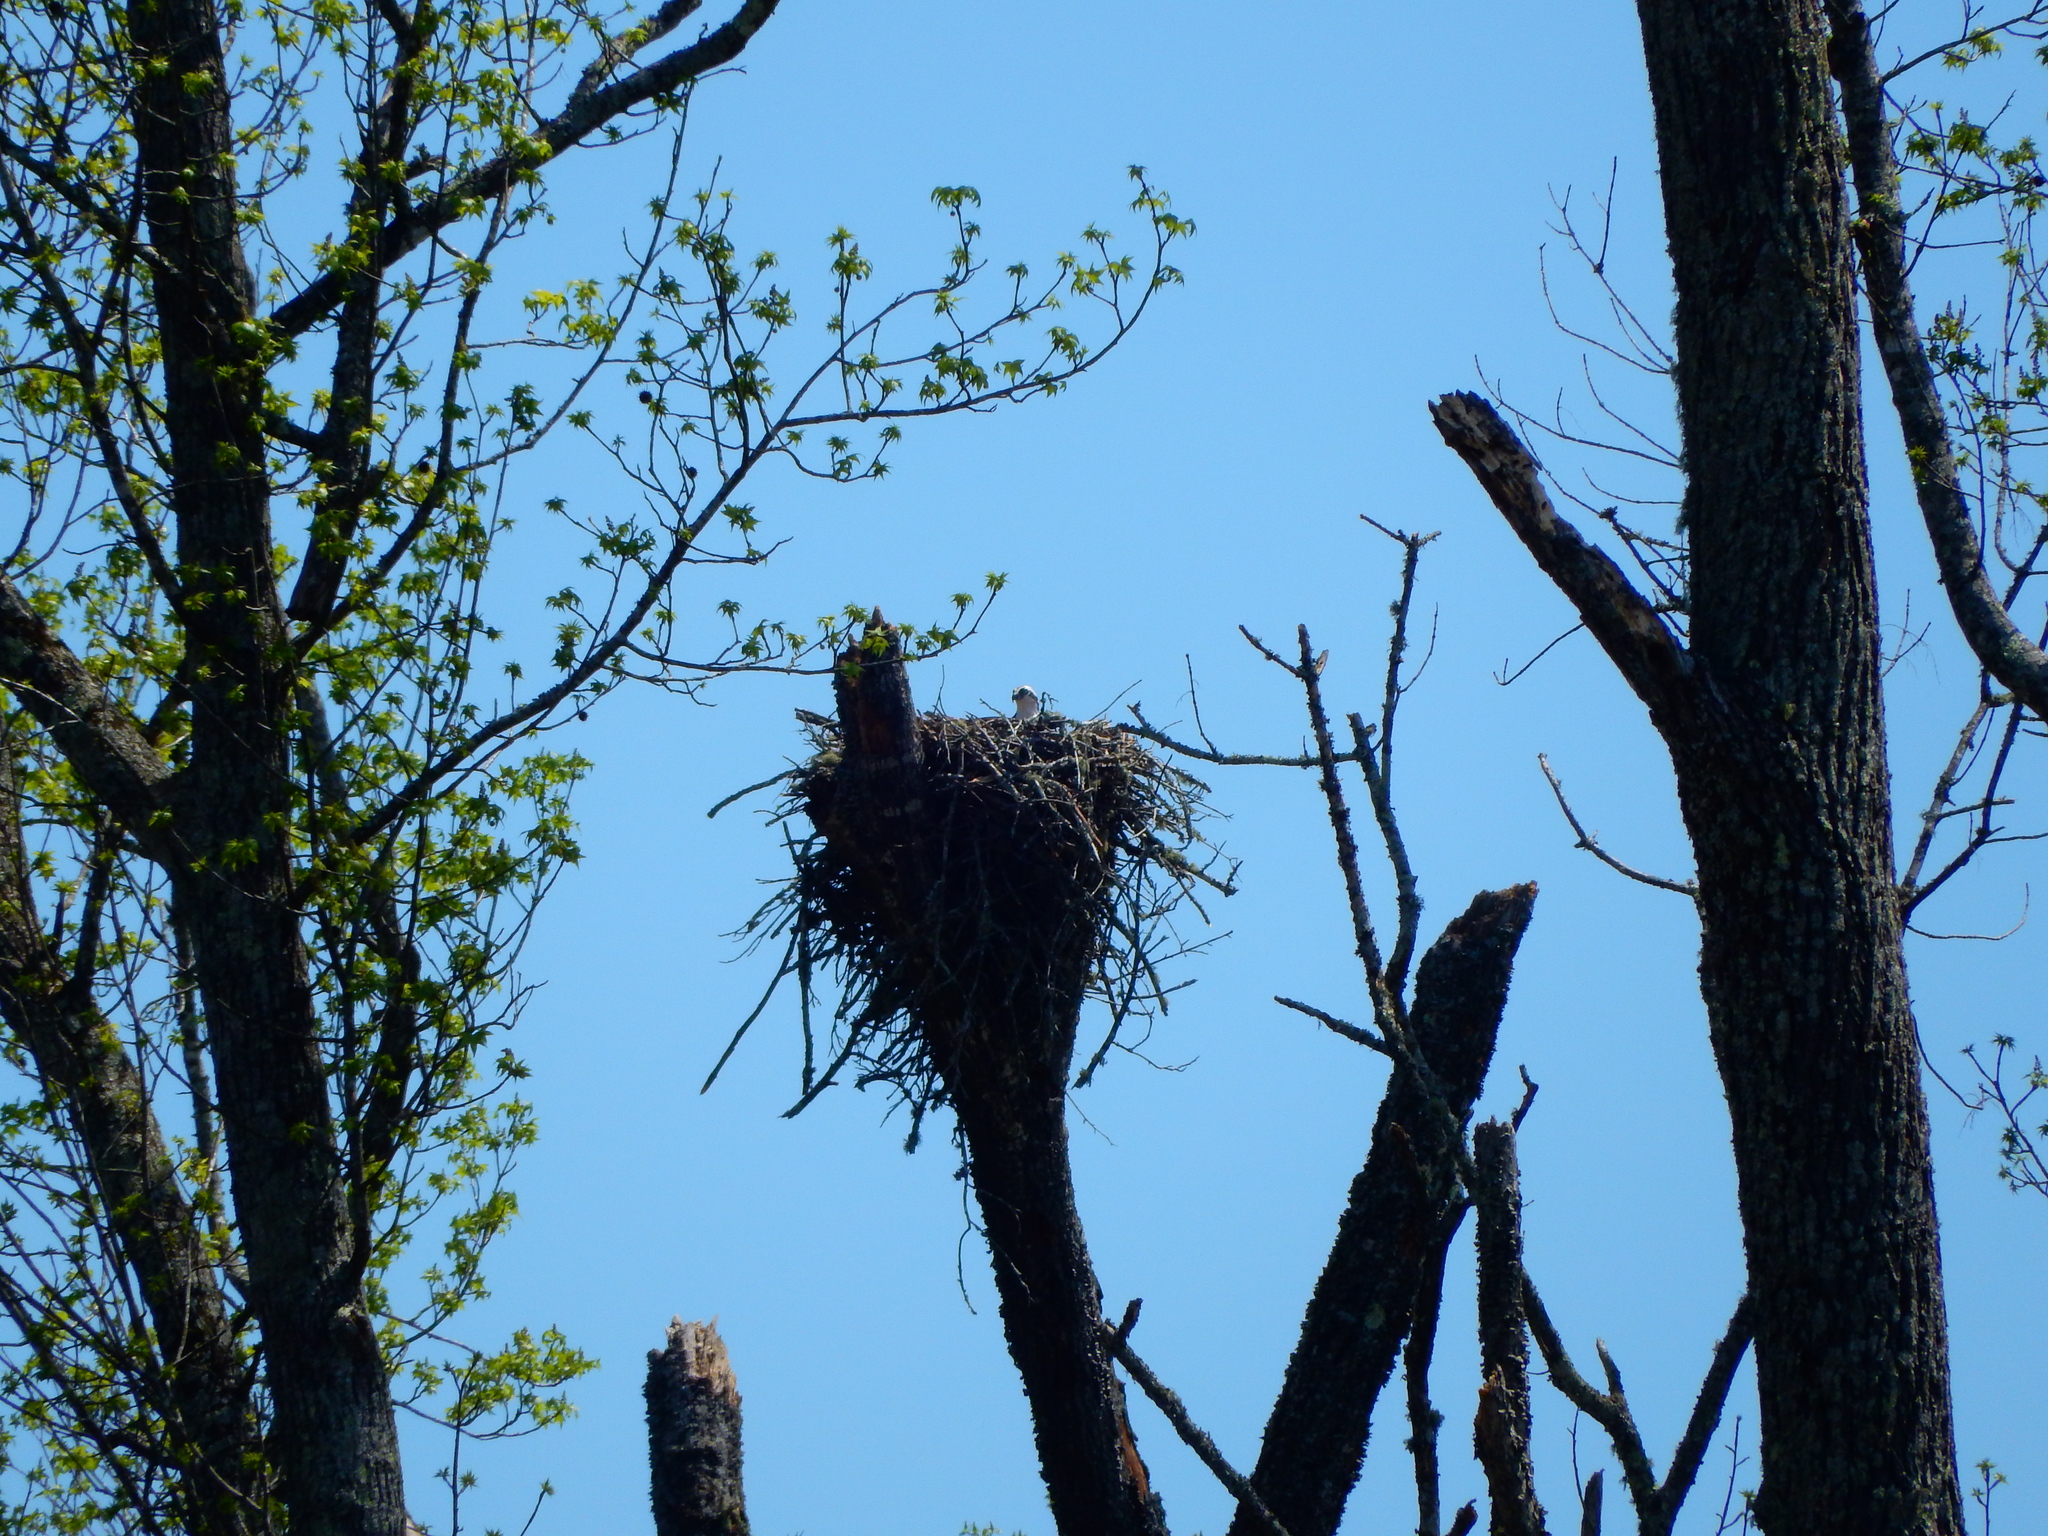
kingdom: Animalia
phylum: Chordata
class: Aves
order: Accipitriformes
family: Pandionidae
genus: Pandion
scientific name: Pandion haliaetus
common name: Osprey
